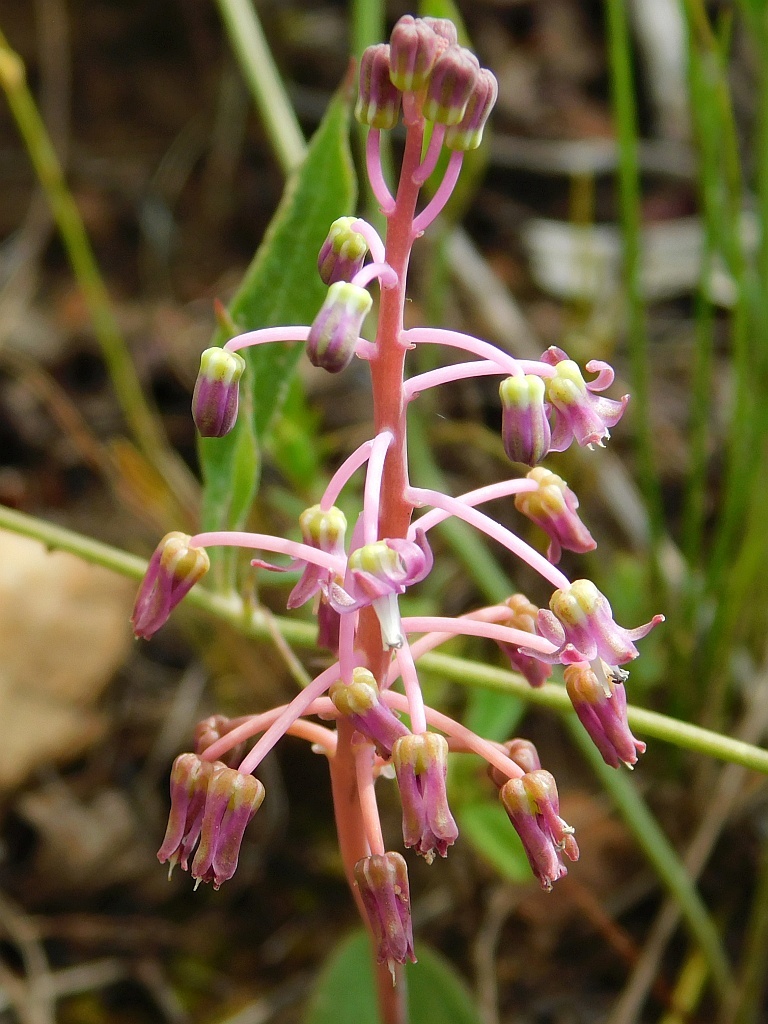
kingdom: Plantae
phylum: Tracheophyta
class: Liliopsida
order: Asparagales
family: Asparagaceae
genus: Ledebouria
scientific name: Ledebouria ovalifolia
